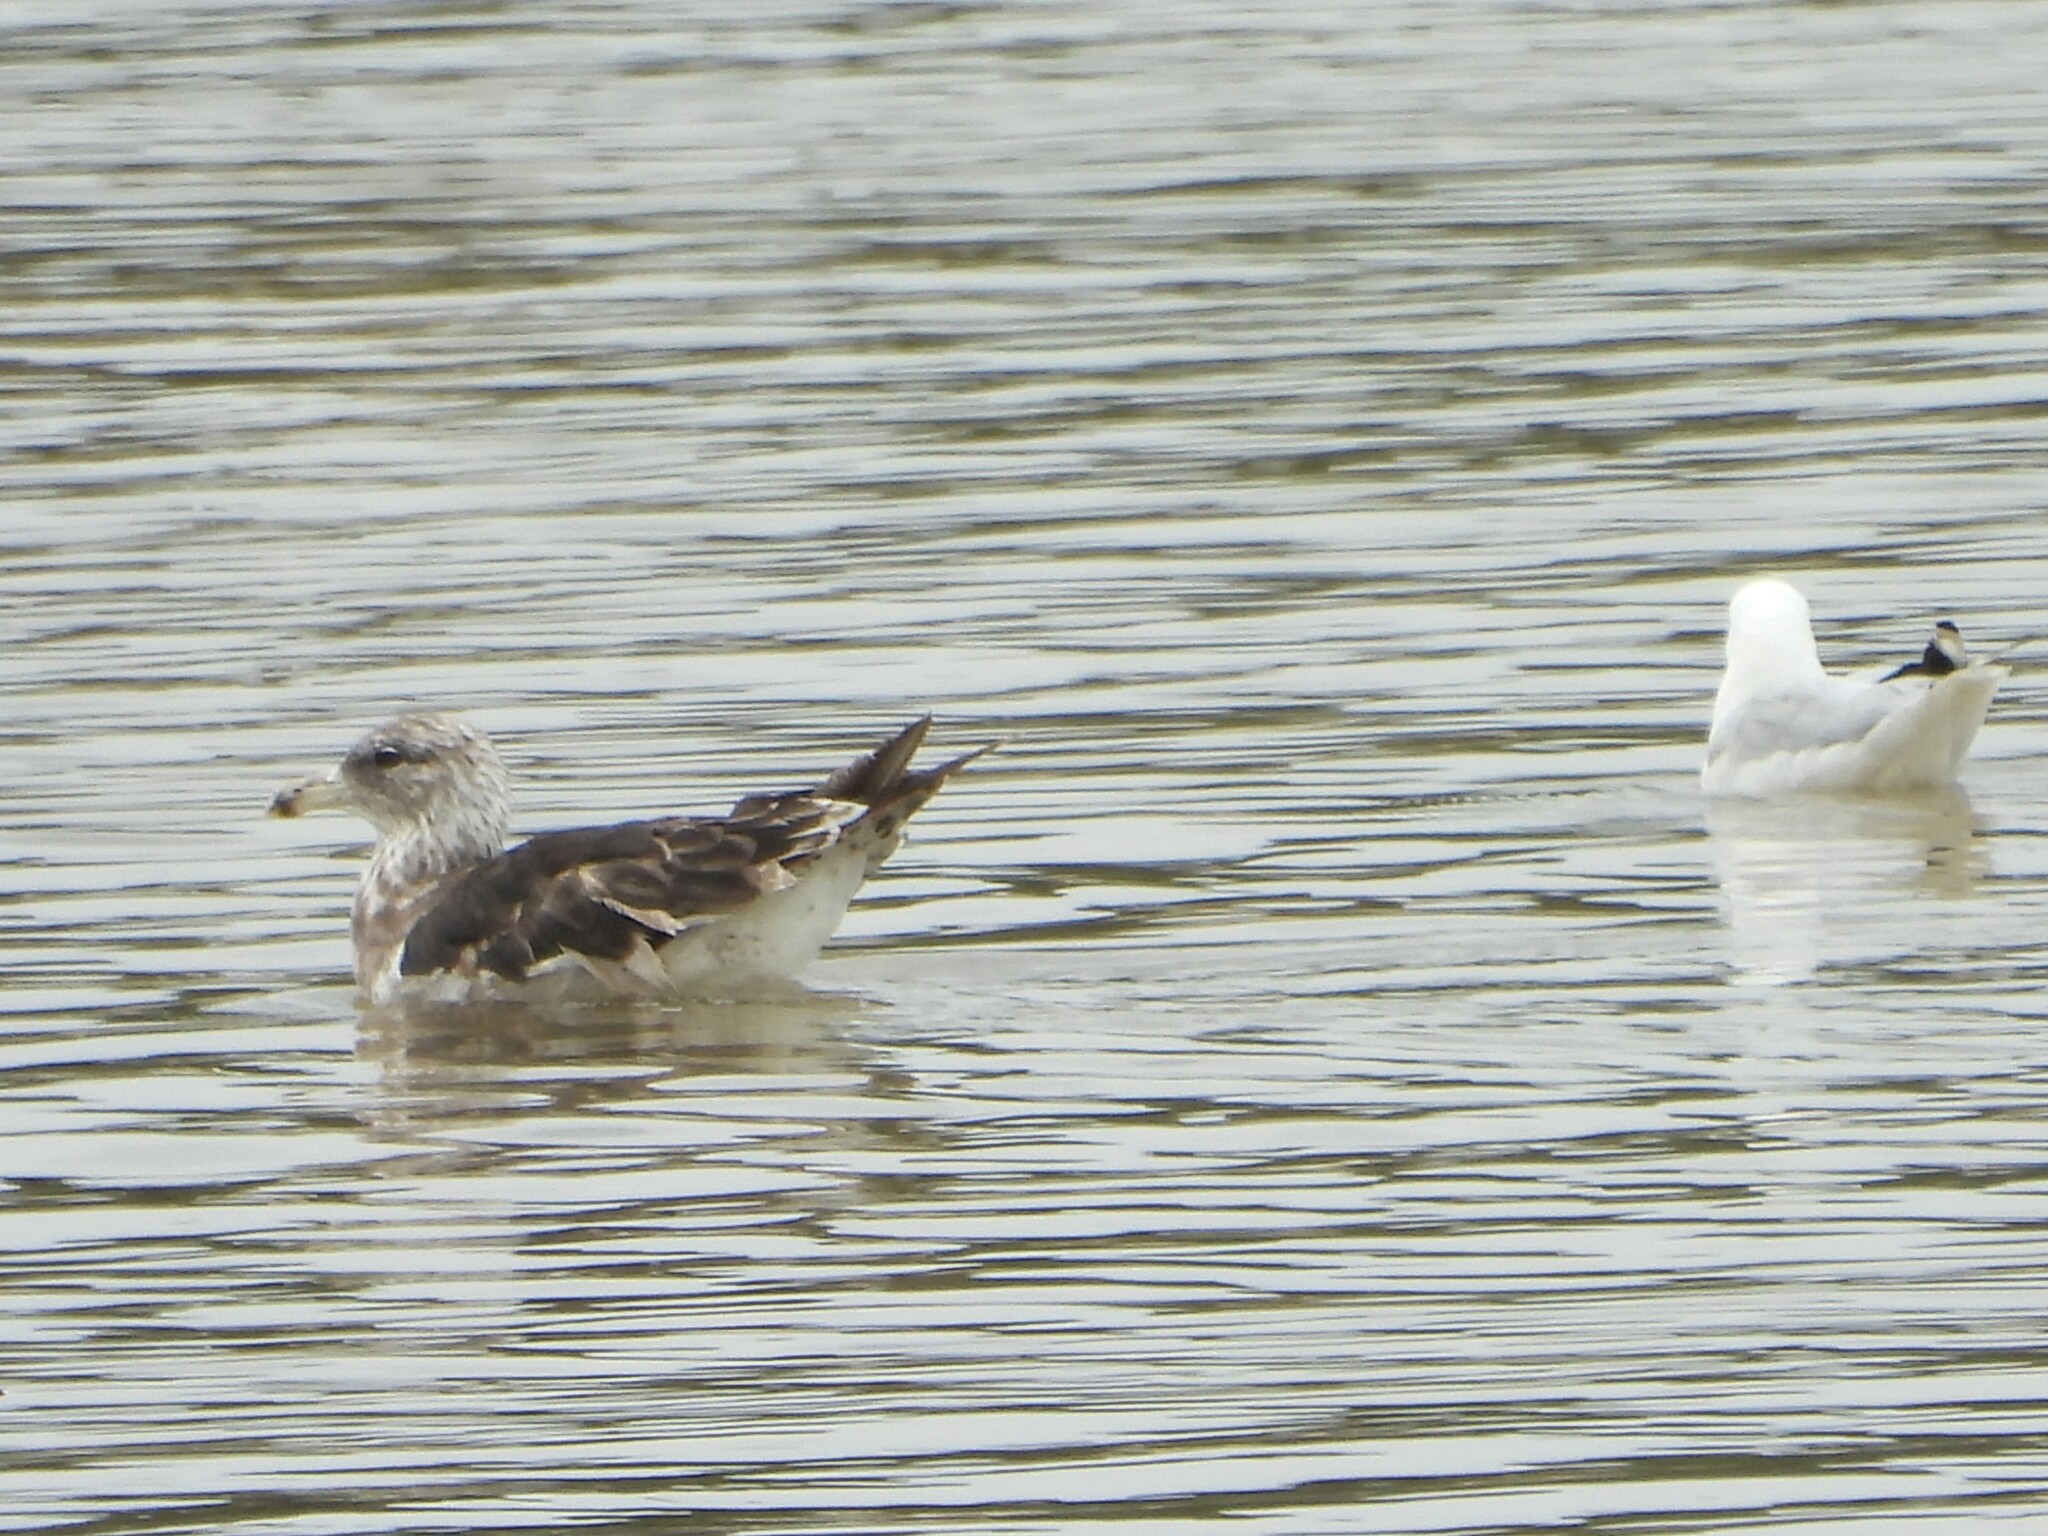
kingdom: Animalia
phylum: Chordata
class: Aves
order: Charadriiformes
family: Laridae
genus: Larus
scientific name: Larus dominicanus
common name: Kelp gull
